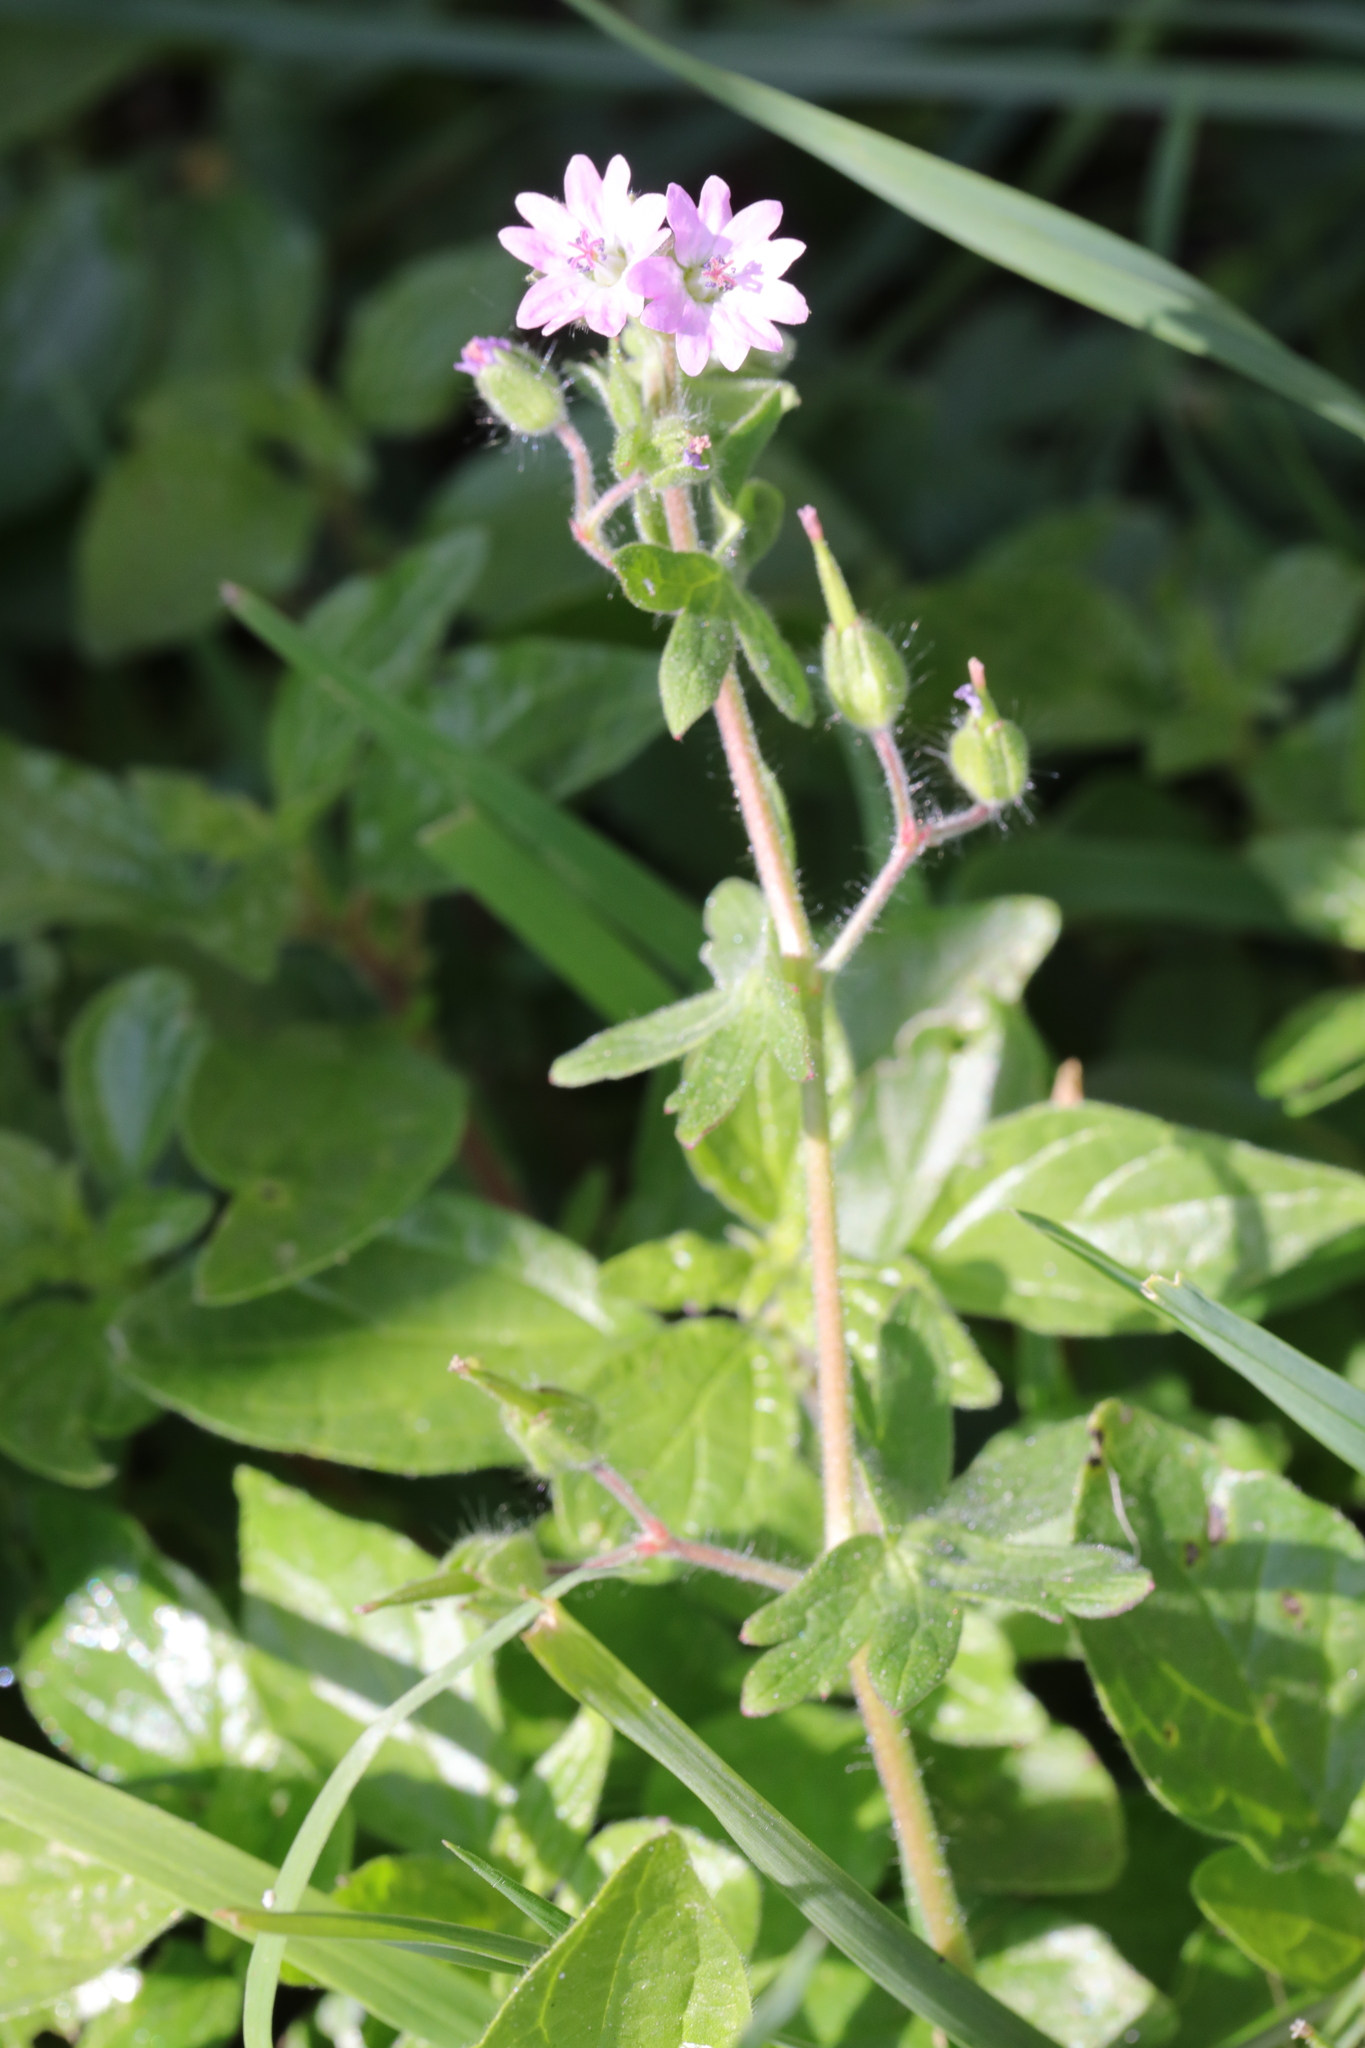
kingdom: Plantae
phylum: Tracheophyta
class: Magnoliopsida
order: Geraniales
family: Geraniaceae
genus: Geranium
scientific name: Geranium molle
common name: Dove's-foot crane's-bill
